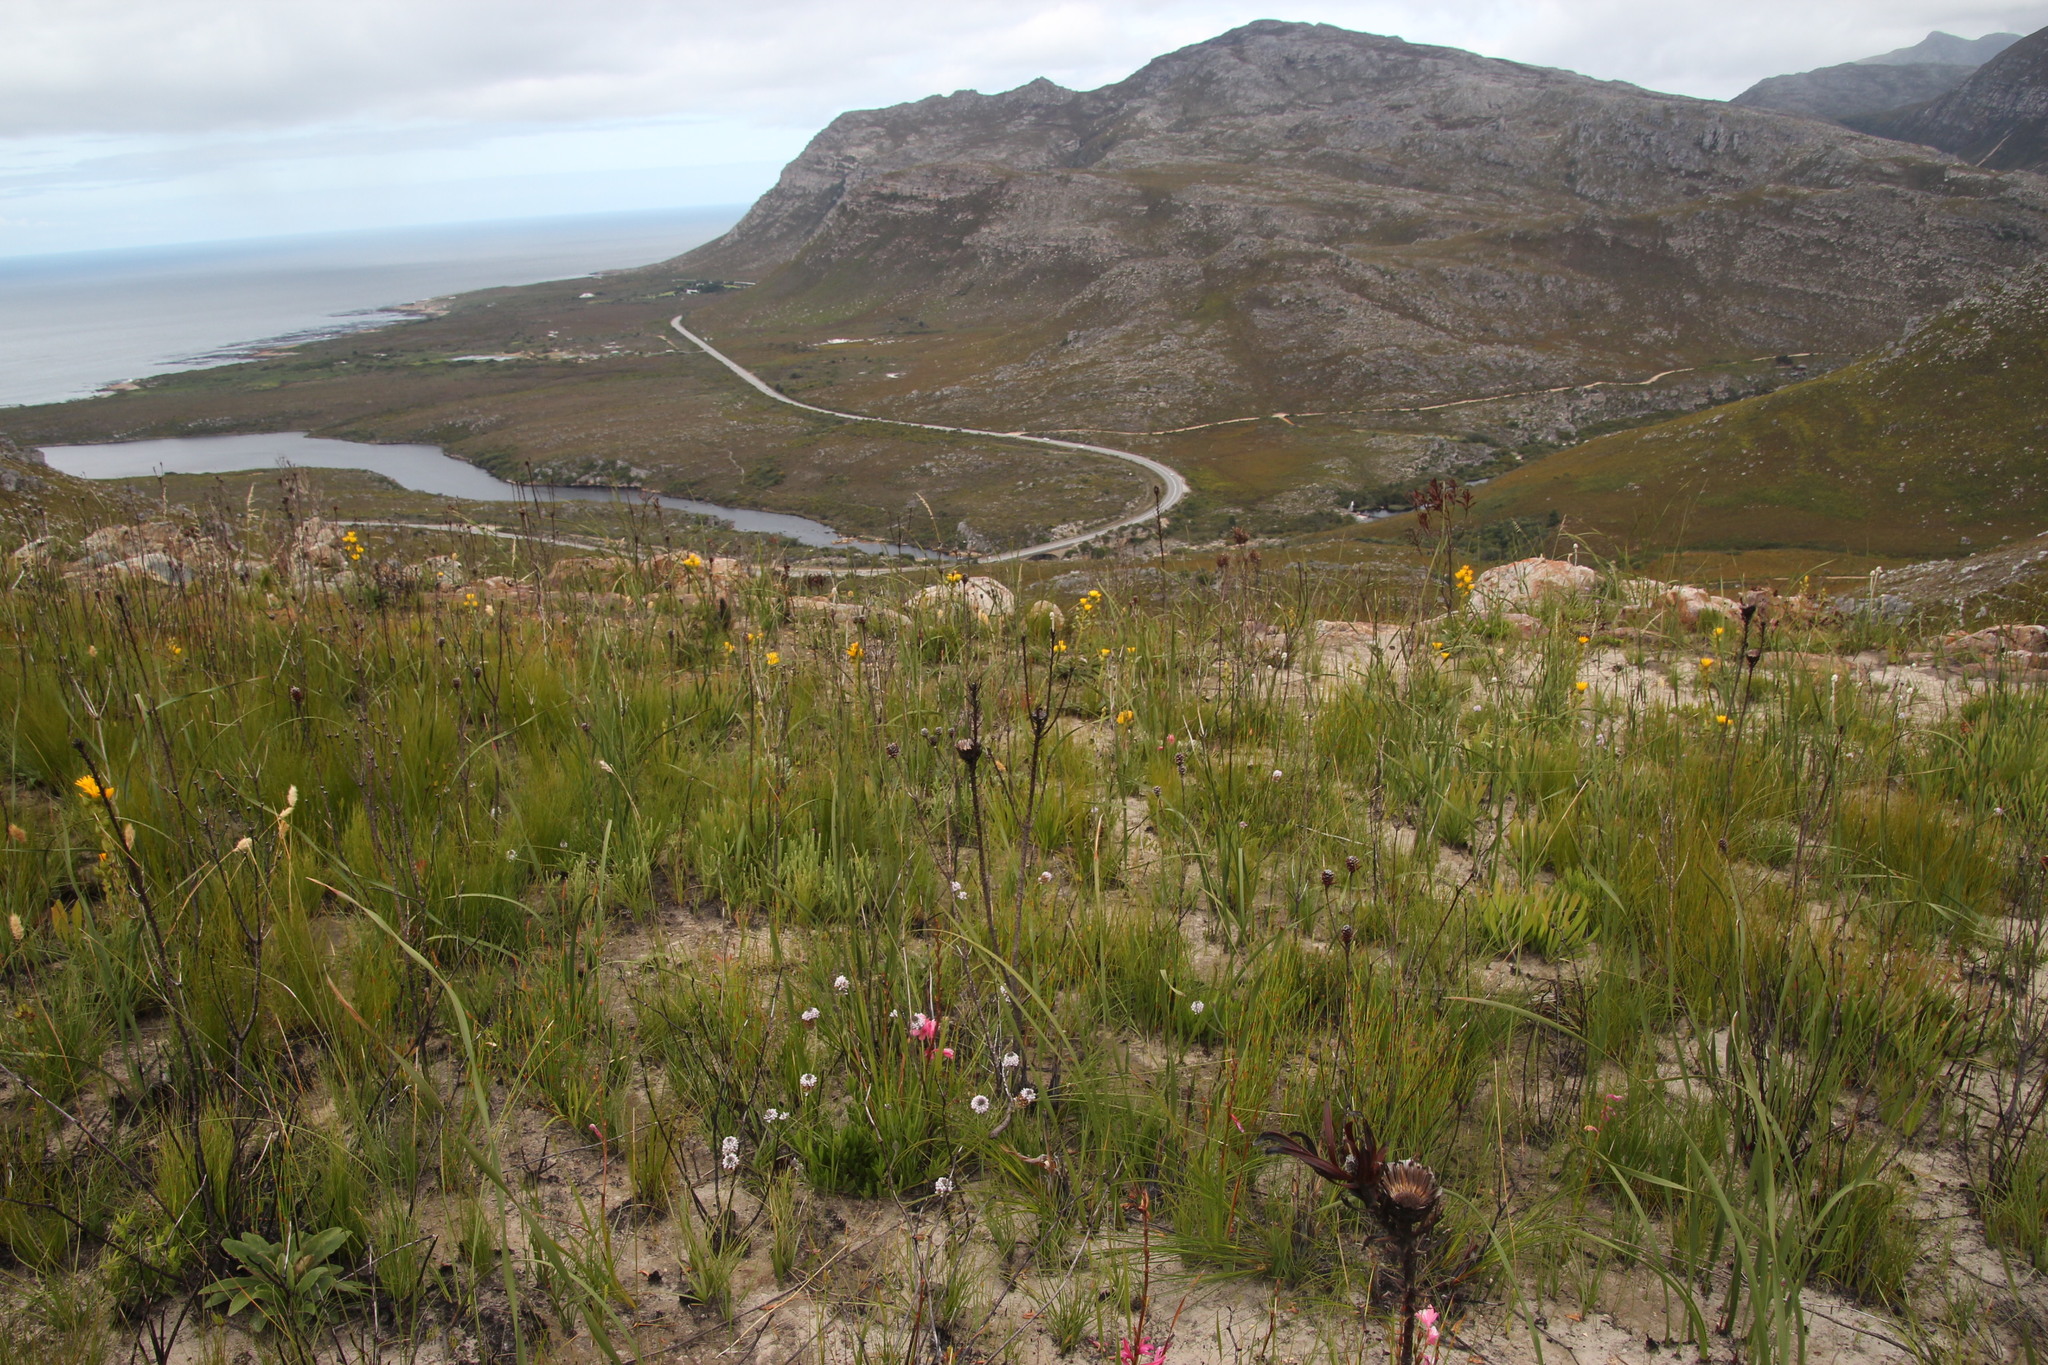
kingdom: Plantae
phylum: Tracheophyta
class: Magnoliopsida
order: Proteales
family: Proteaceae
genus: Protea
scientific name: Protea cordata
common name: Heart-leaf sugarbush
